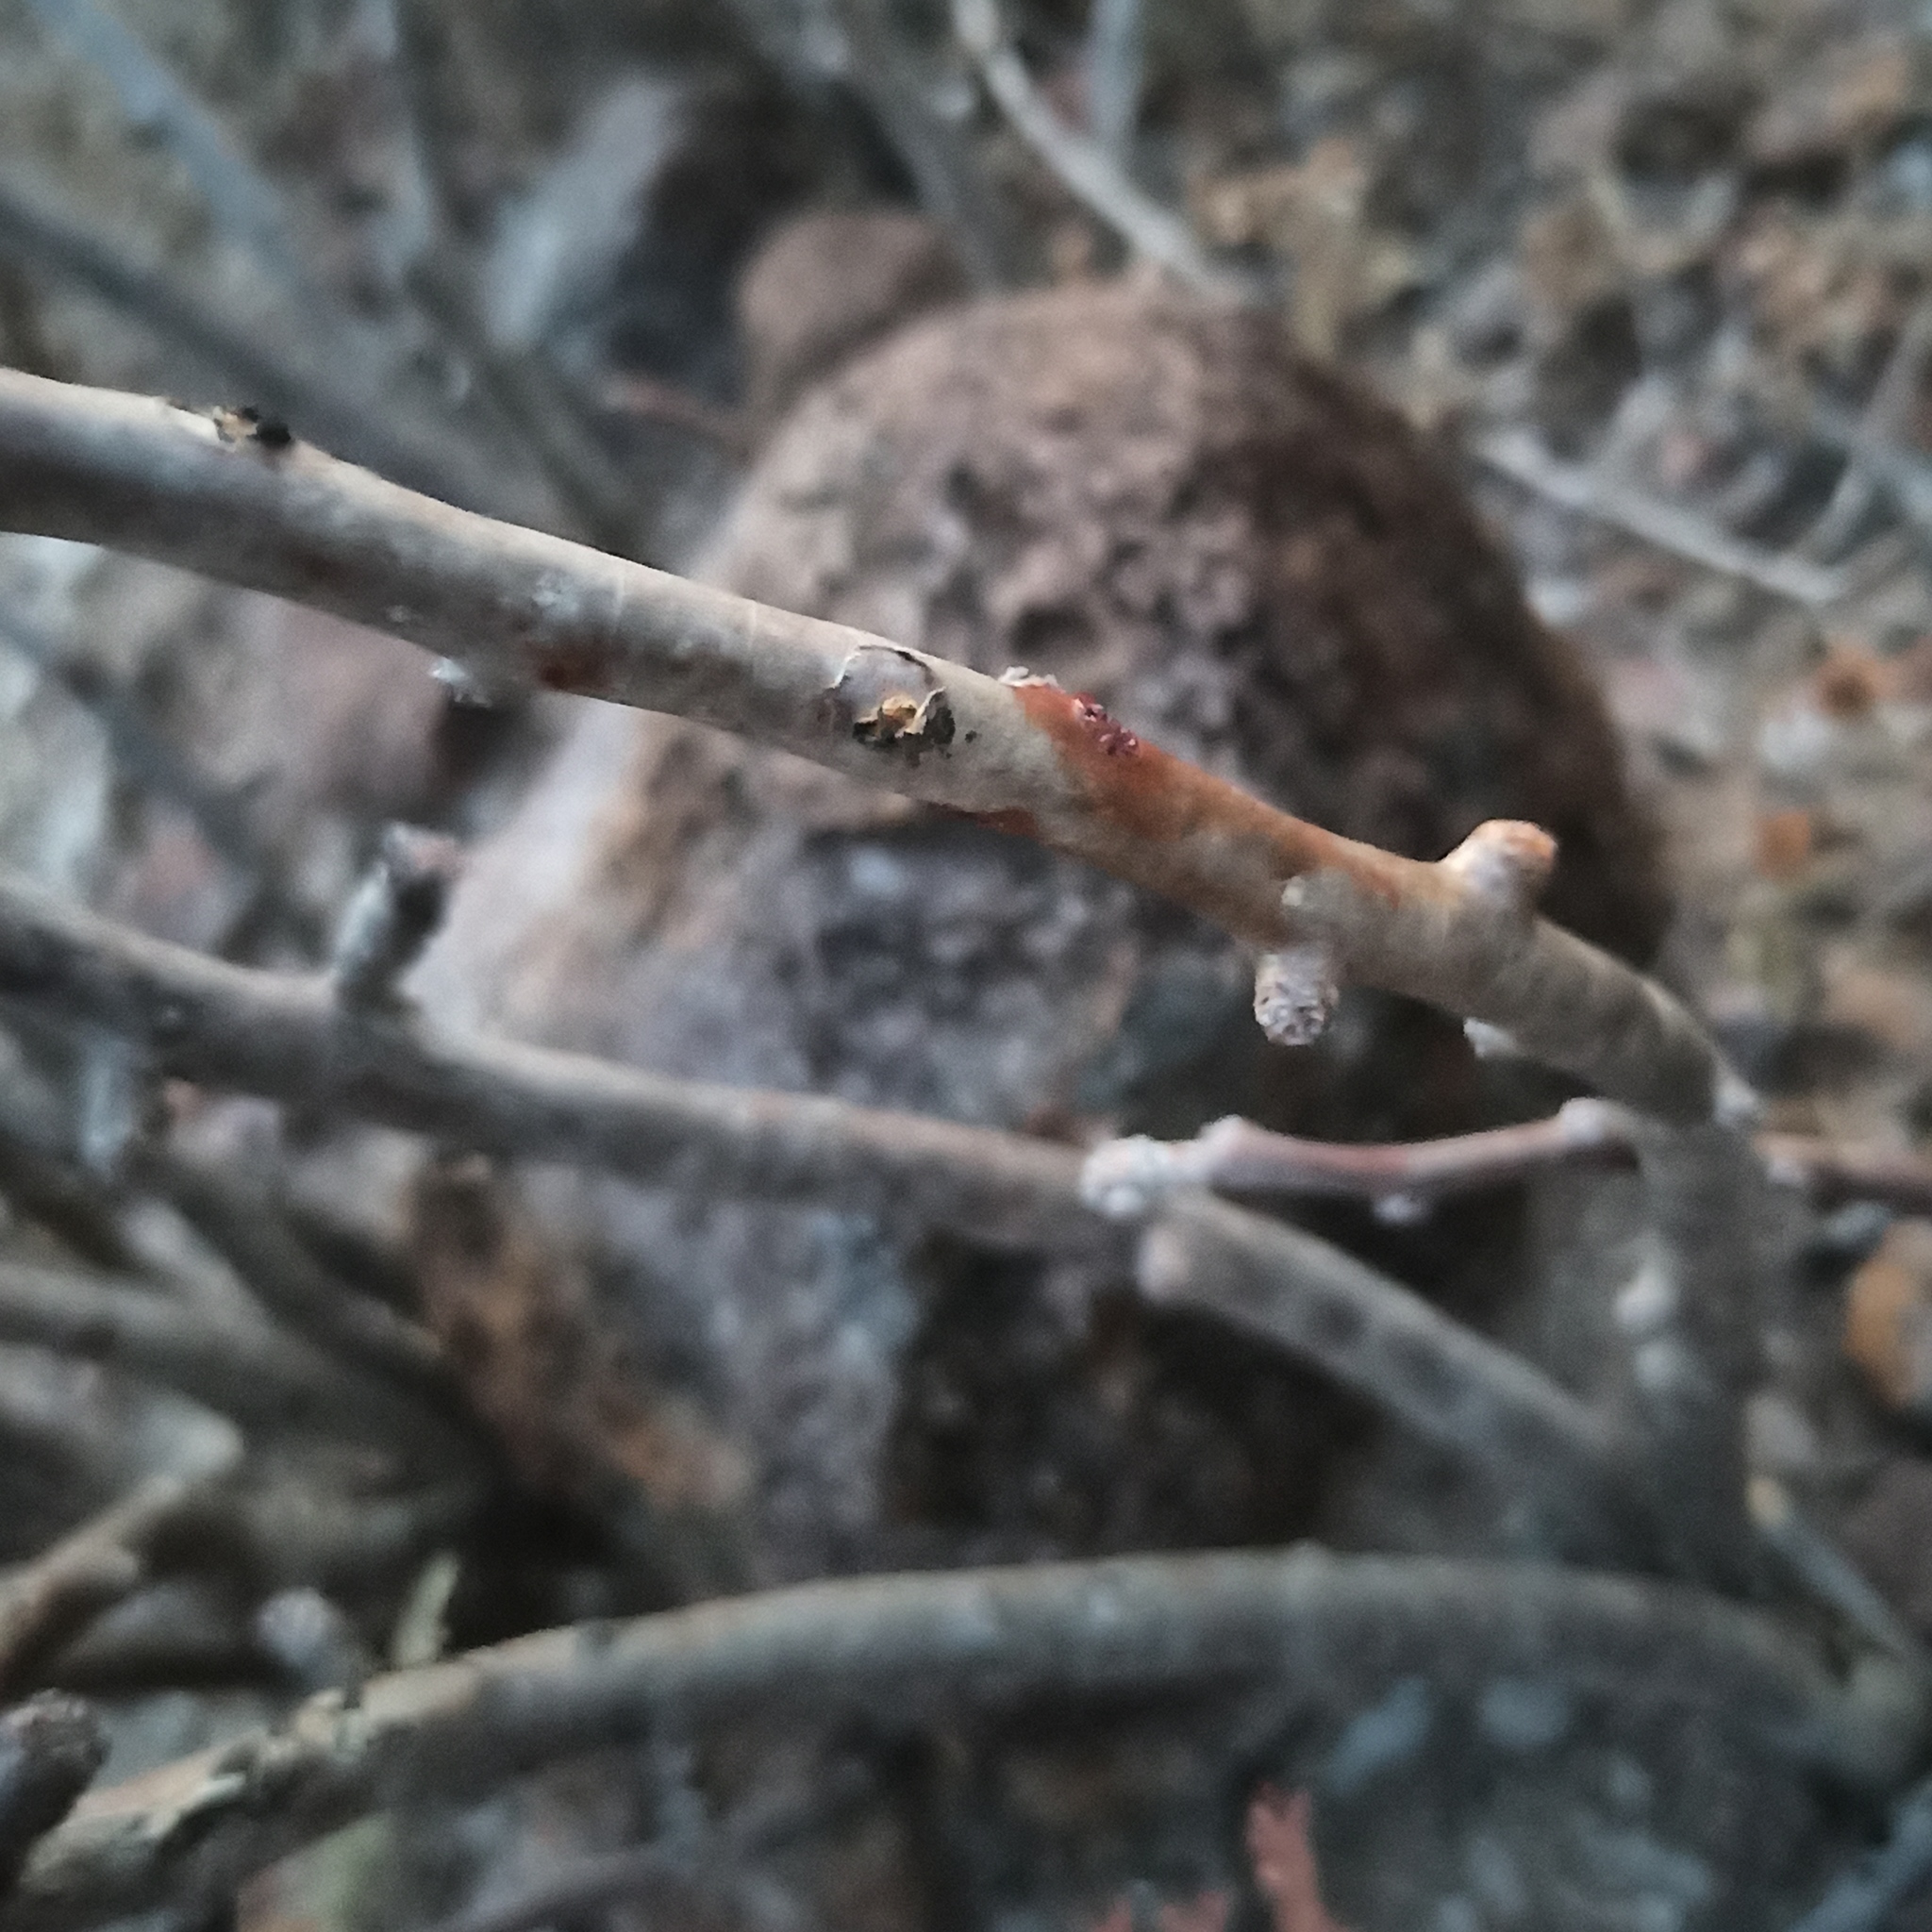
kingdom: Plantae
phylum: Tracheophyta
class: Magnoliopsida
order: Malpighiales
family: Euphorbiaceae
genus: Jatropha
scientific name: Jatropha dioica
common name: Leatherstem
